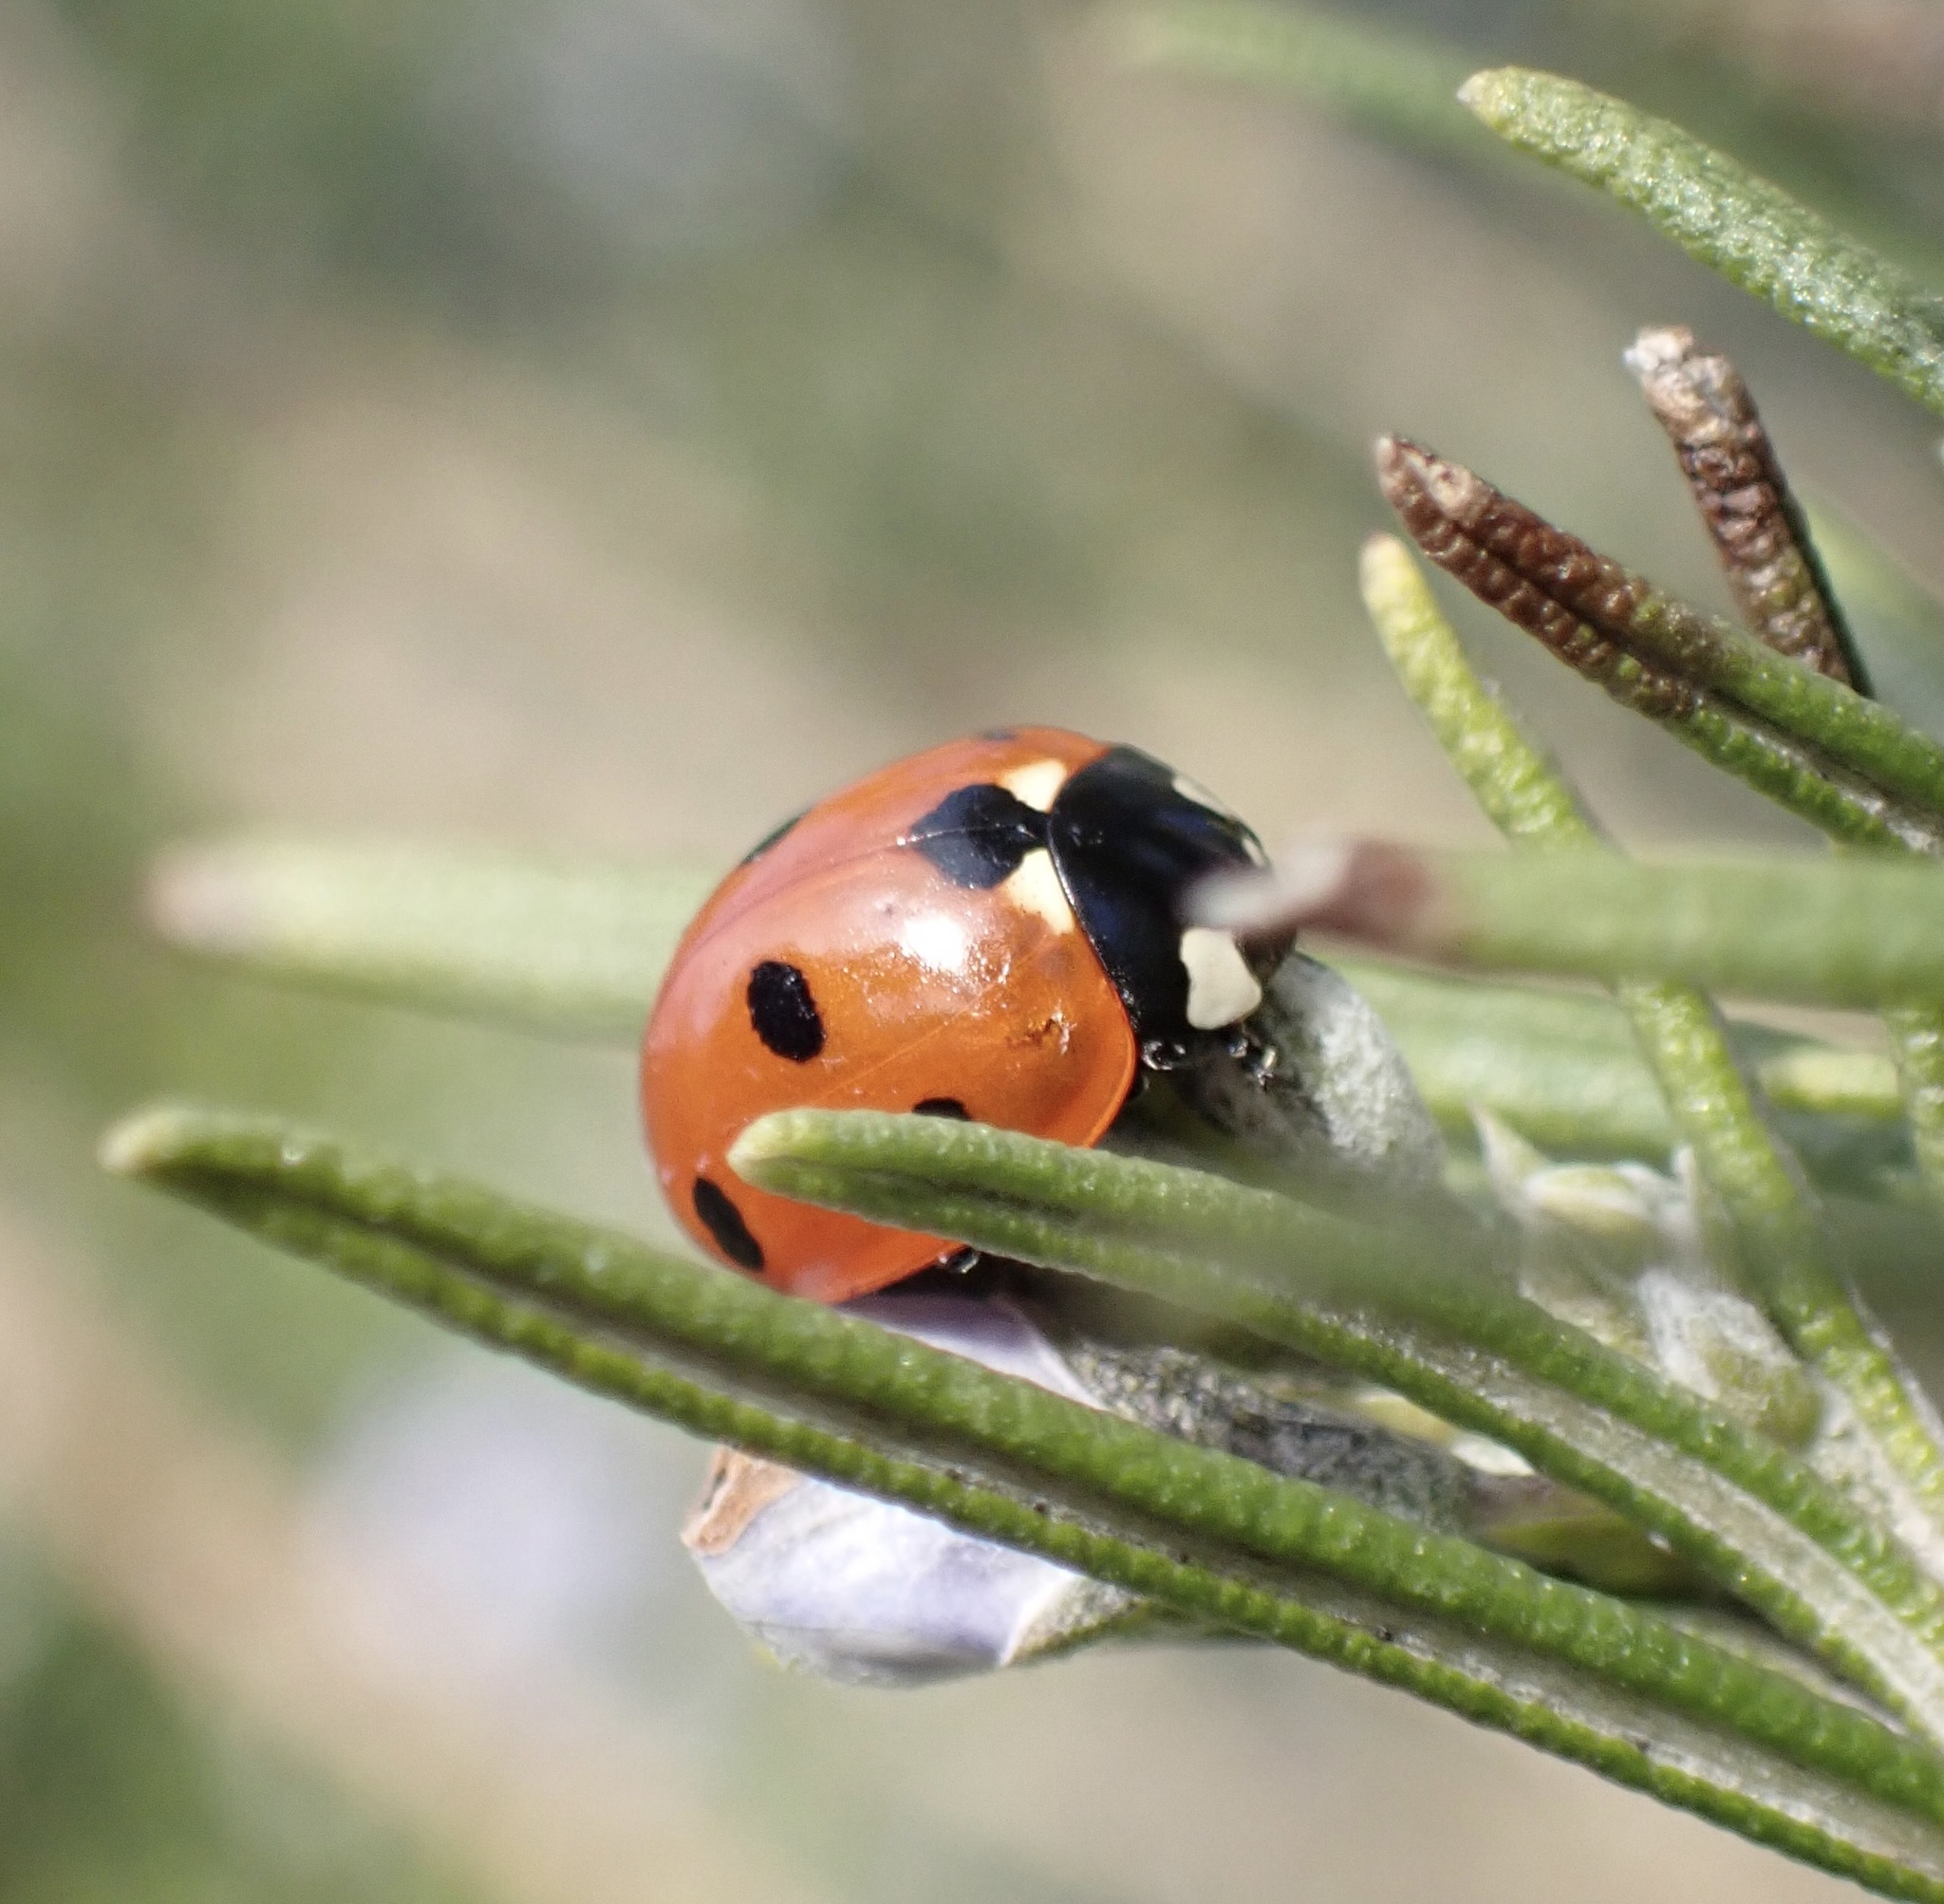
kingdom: Animalia
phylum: Arthropoda
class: Insecta
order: Coleoptera
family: Coccinellidae
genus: Coccinella
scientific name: Coccinella septempunctata
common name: Sevenspotted lady beetle
